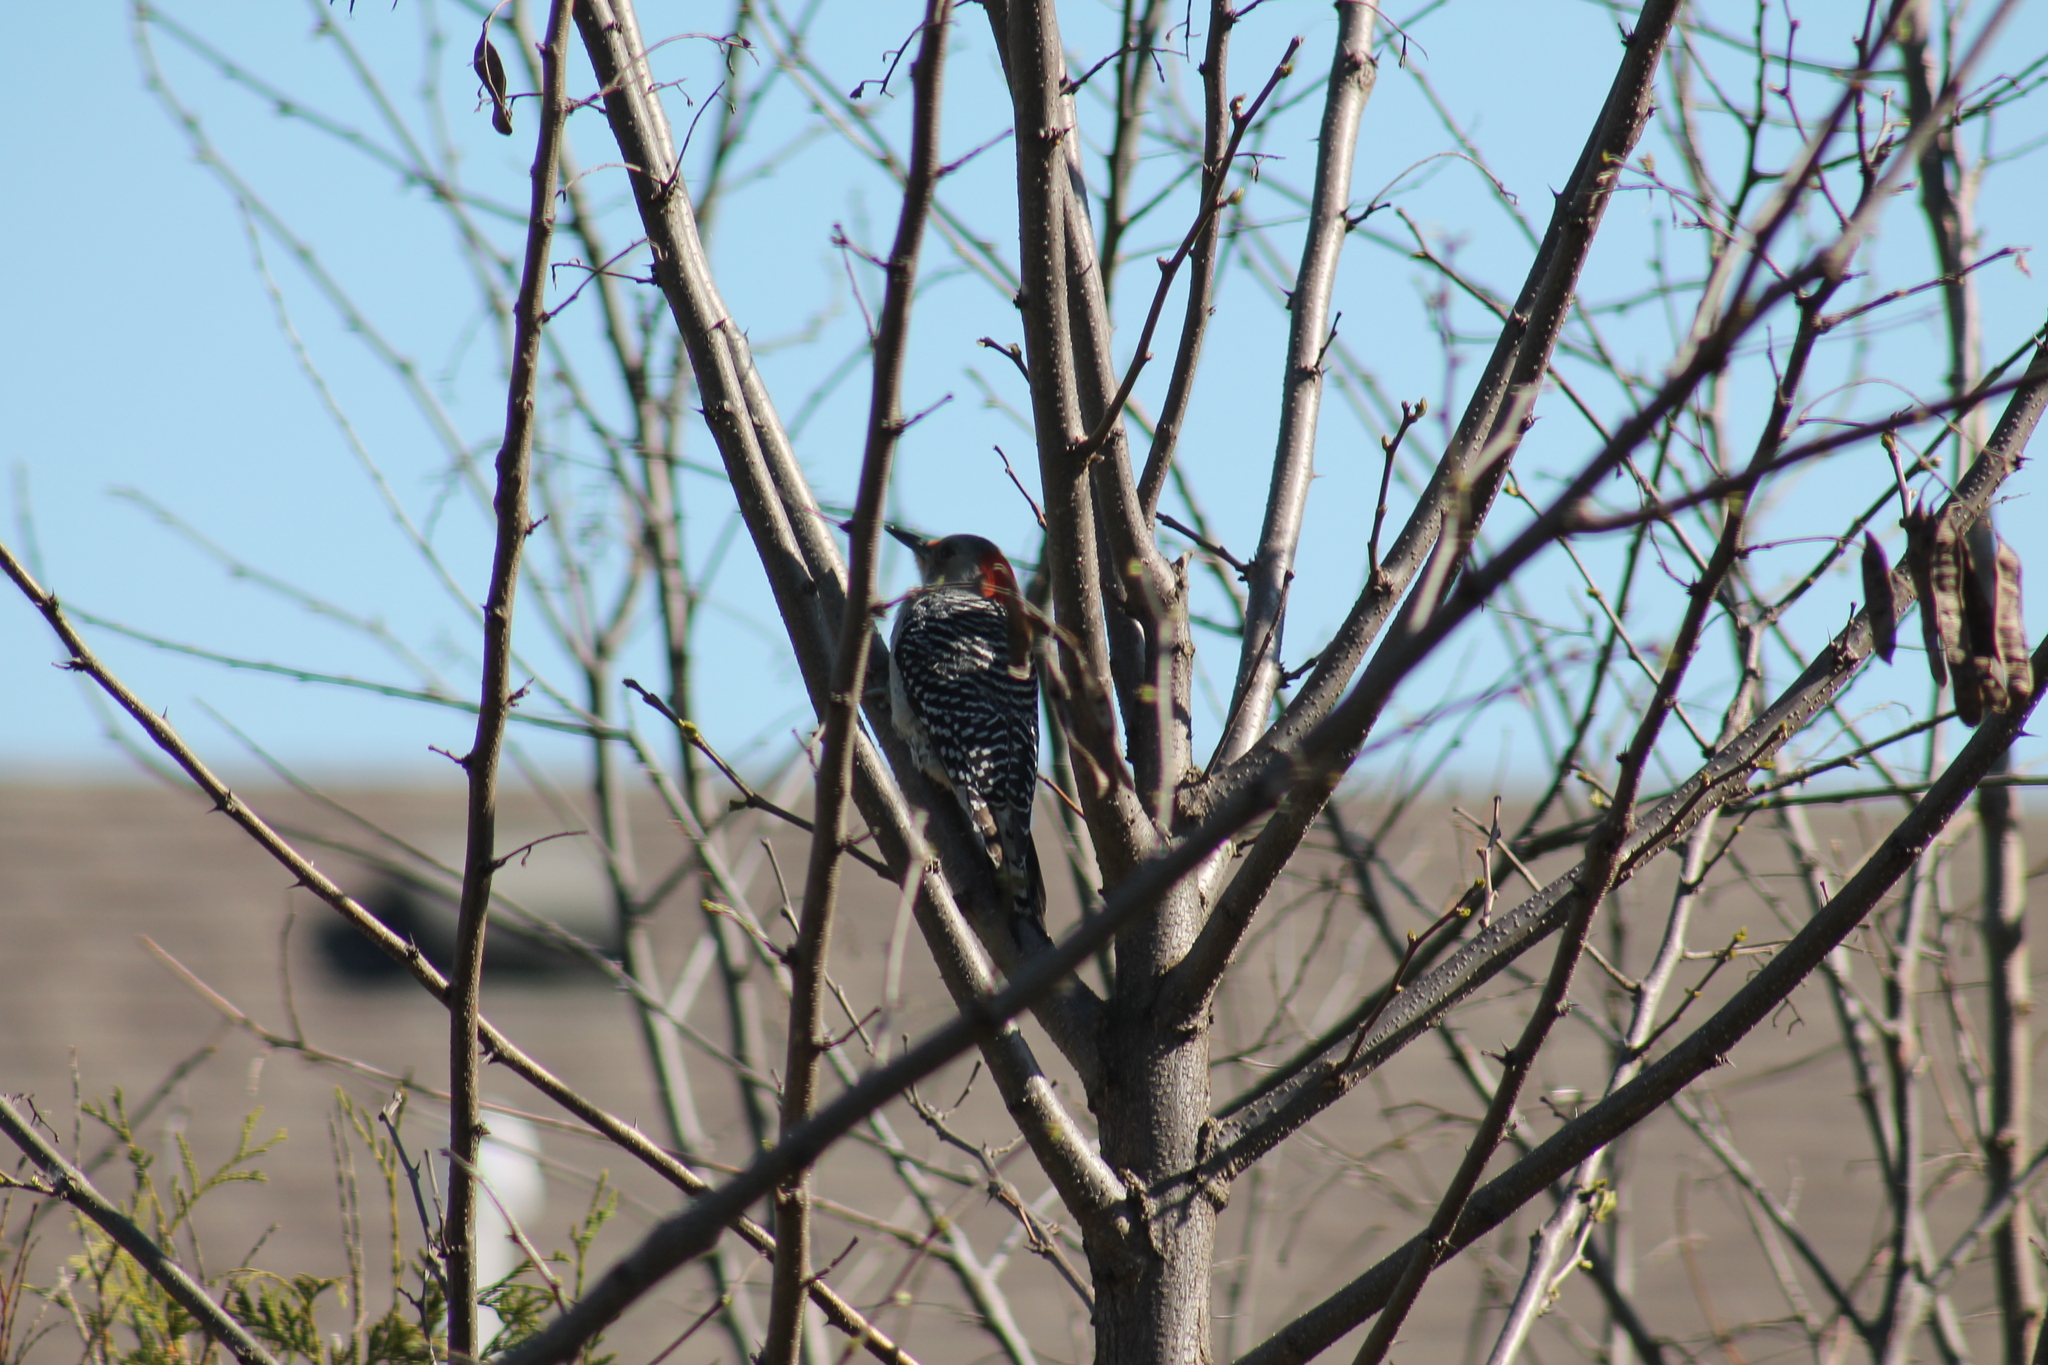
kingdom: Animalia
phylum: Chordata
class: Aves
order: Piciformes
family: Picidae
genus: Melanerpes
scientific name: Melanerpes carolinus
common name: Red-bellied woodpecker
